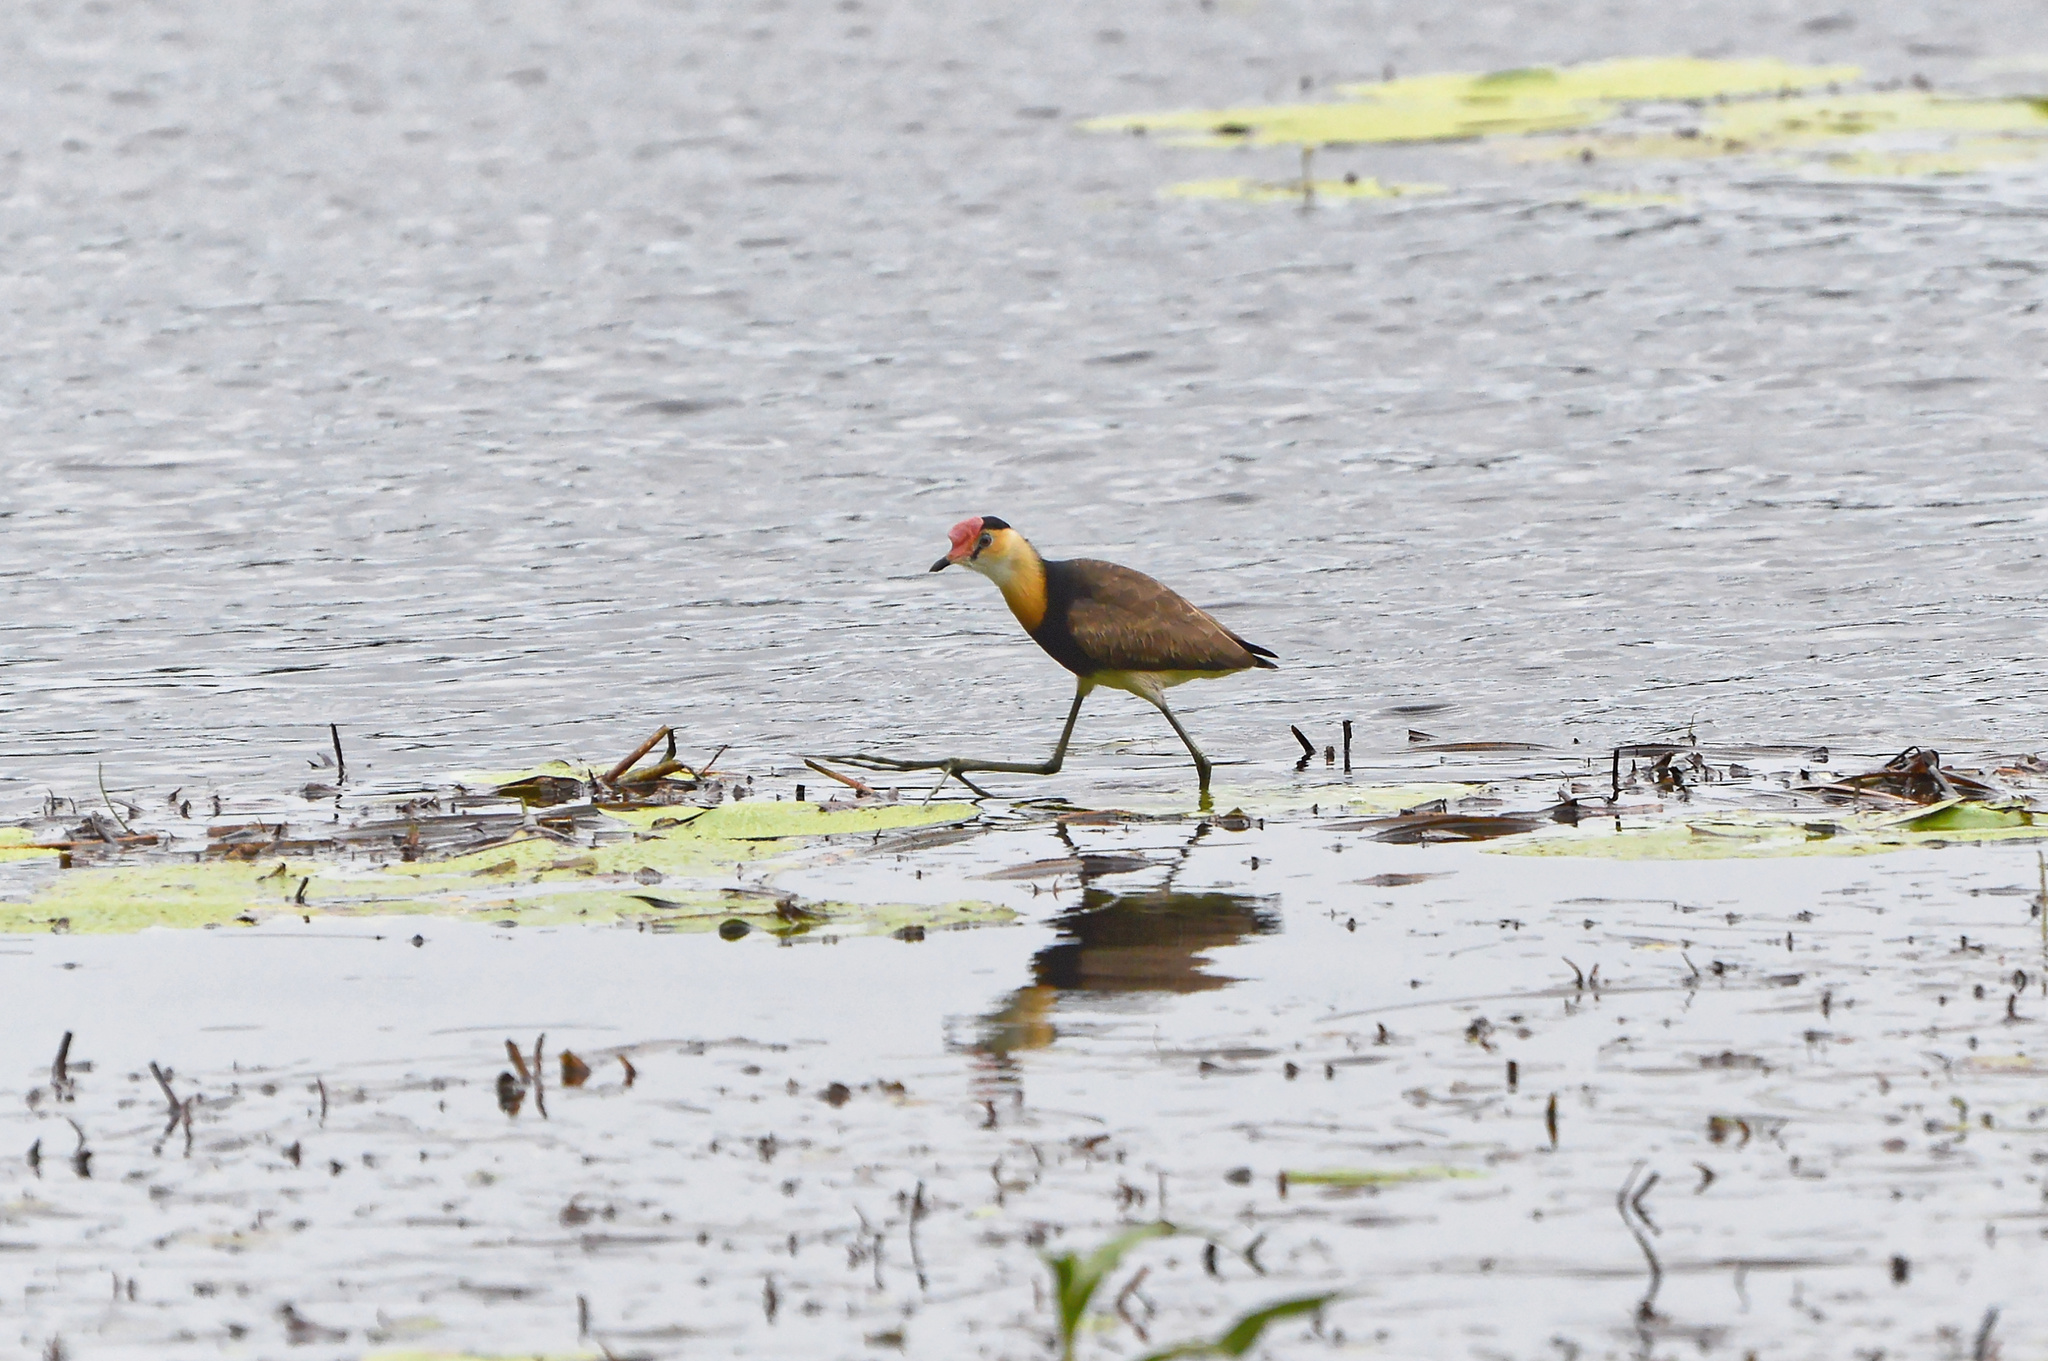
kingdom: Animalia
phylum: Chordata
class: Aves
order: Charadriiformes
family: Jacanidae
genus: Irediparra
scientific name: Irediparra gallinacea
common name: Comb-crested jacana
